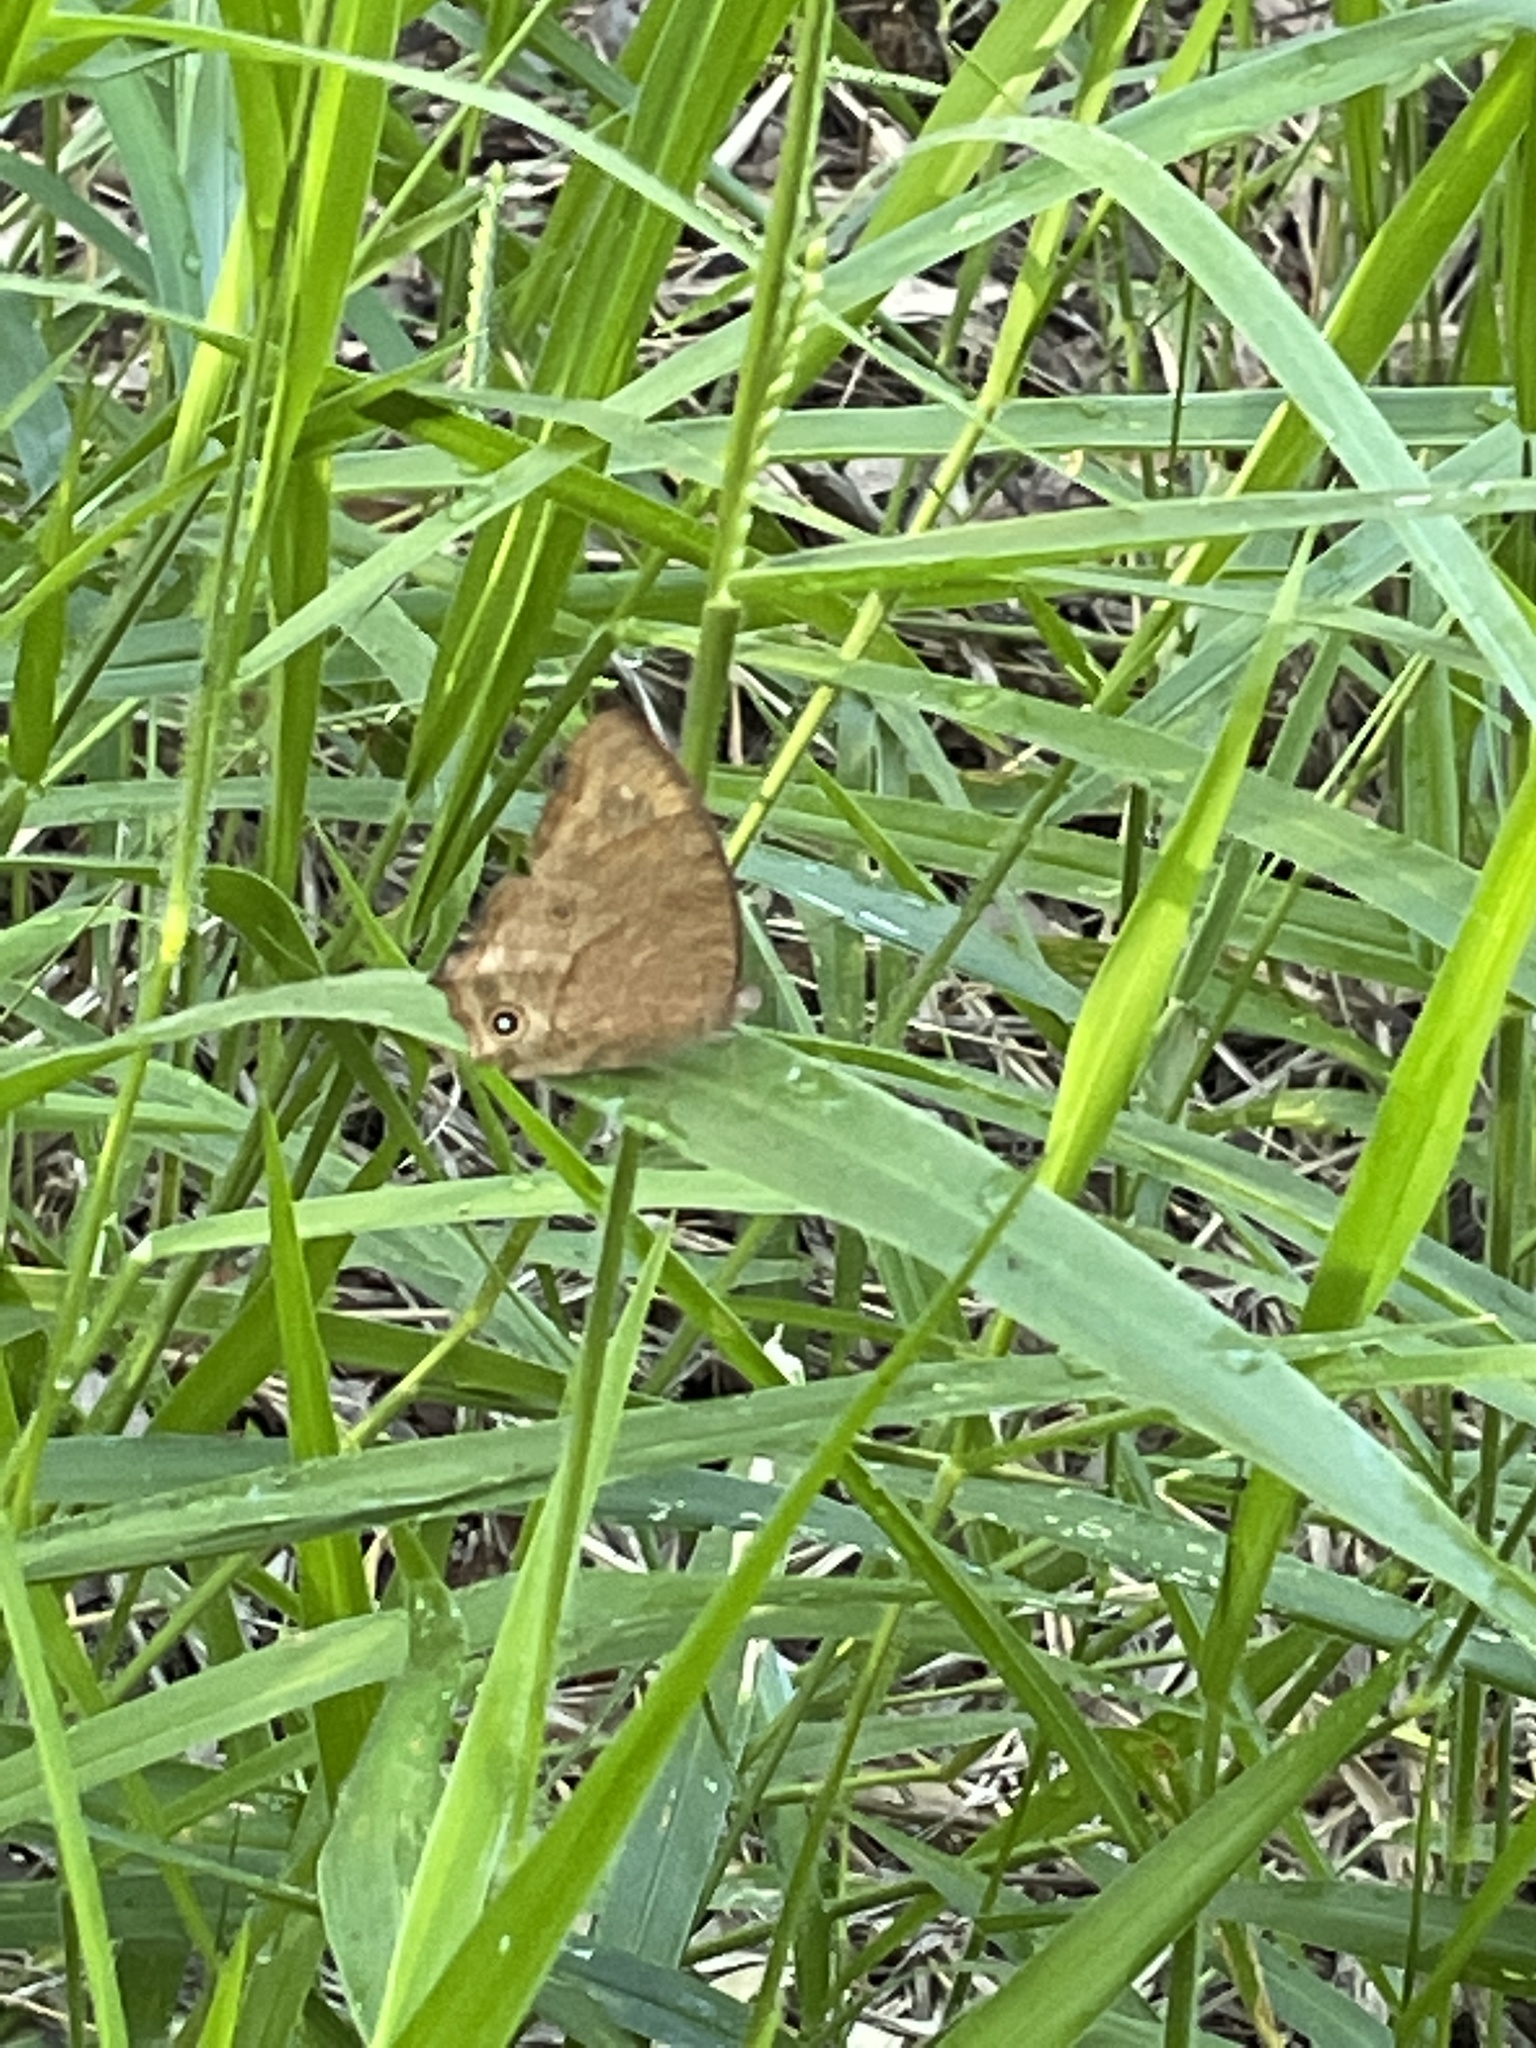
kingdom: Animalia
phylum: Arthropoda
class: Insecta
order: Lepidoptera
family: Nymphalidae
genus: Melanitis
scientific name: Melanitis leda
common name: Twilight brown
